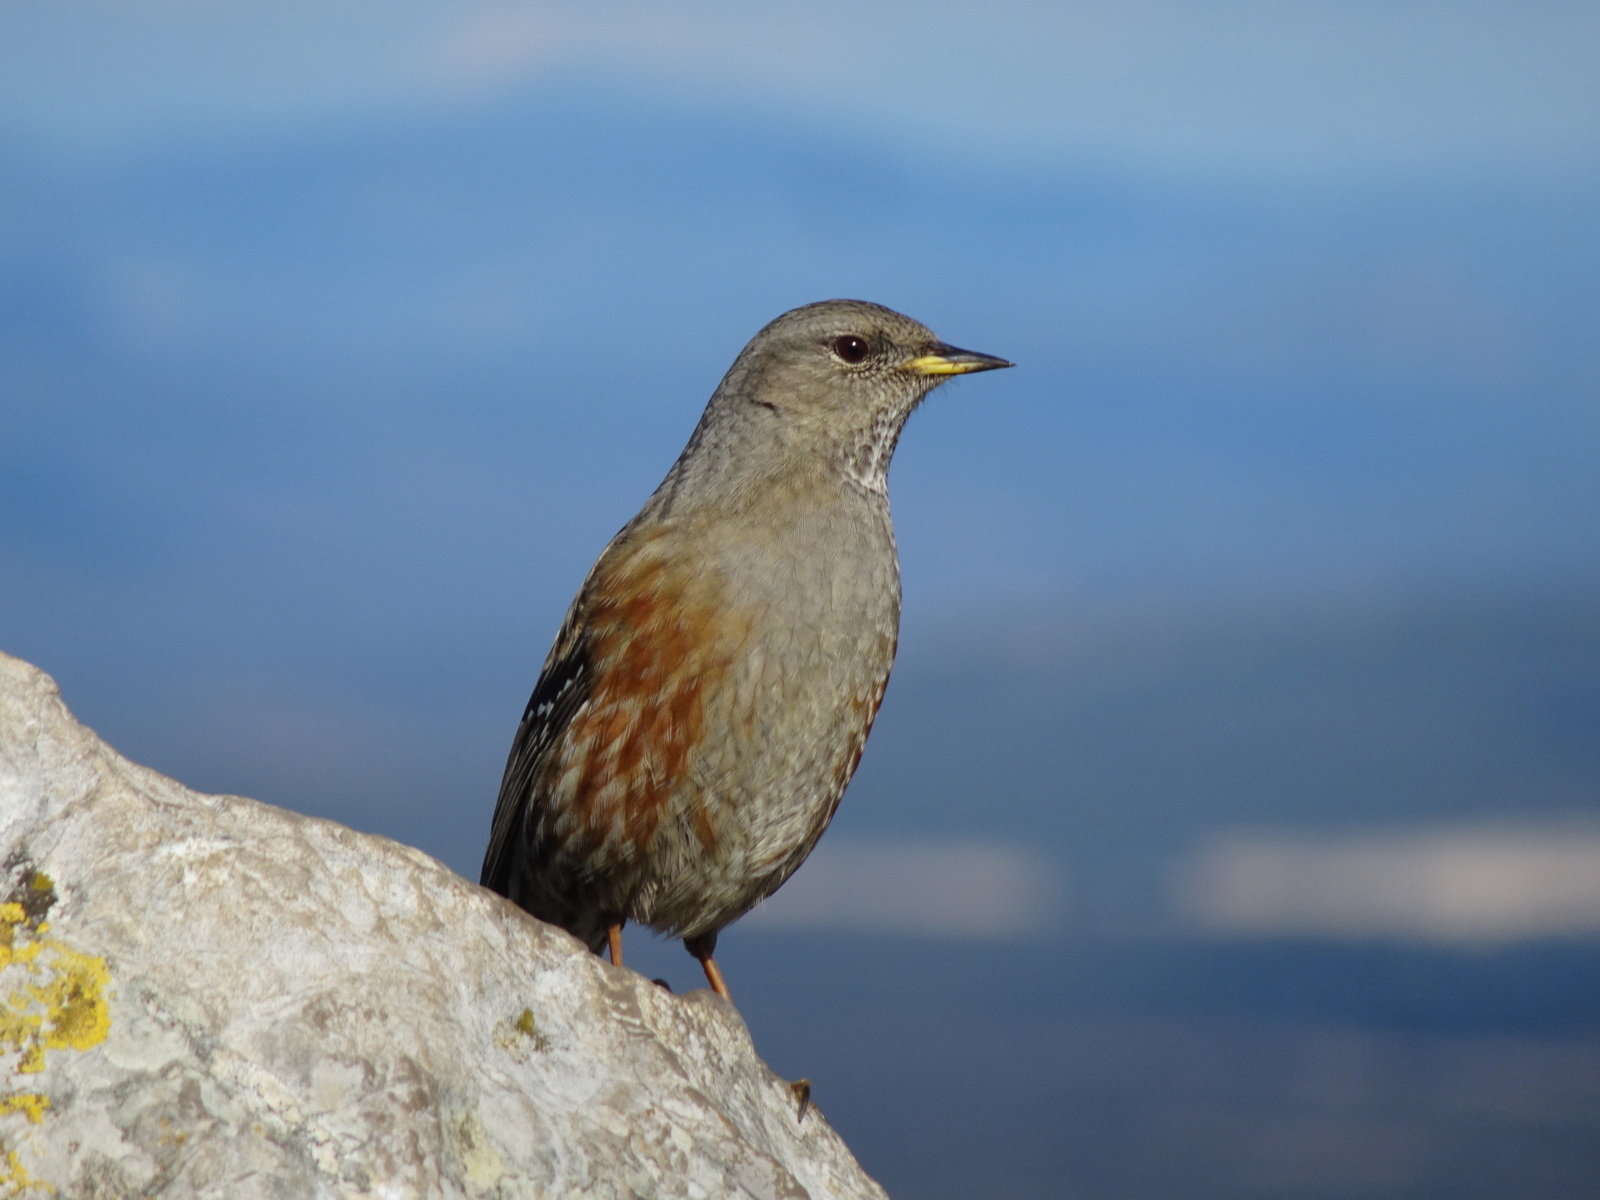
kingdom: Animalia
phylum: Chordata
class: Aves
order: Passeriformes
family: Prunellidae
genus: Prunella
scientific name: Prunella collaris
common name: Alpine accentor
